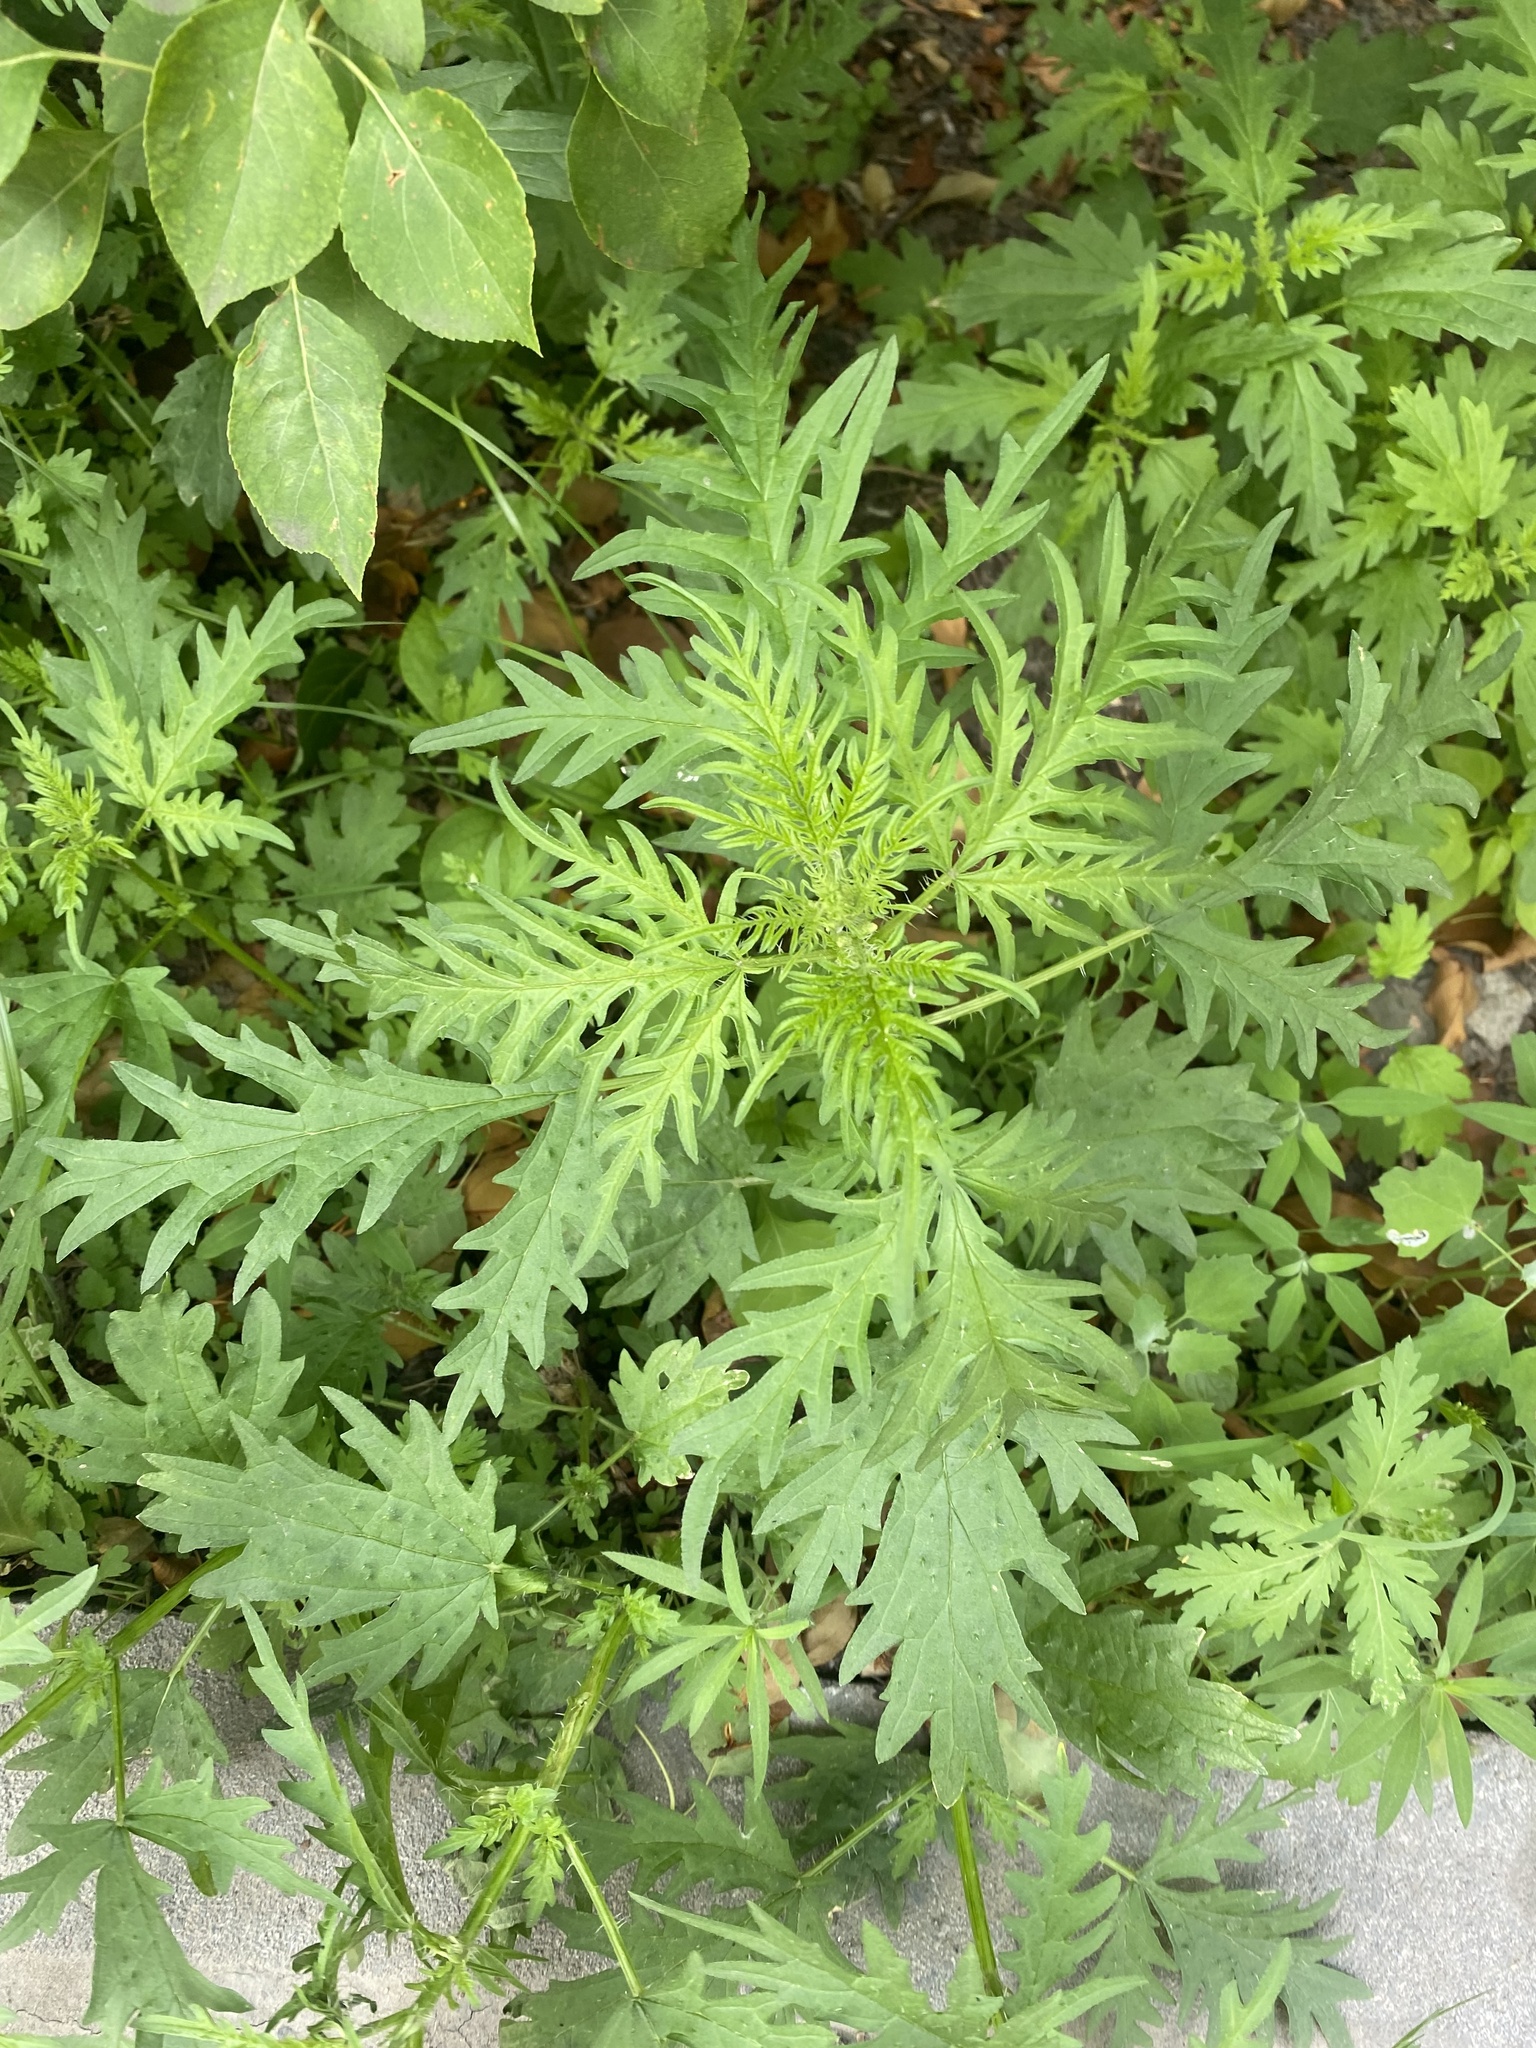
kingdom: Plantae
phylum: Tracheophyta
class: Magnoliopsida
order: Rosales
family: Urticaceae
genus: Urtica
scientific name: Urtica cannabina
